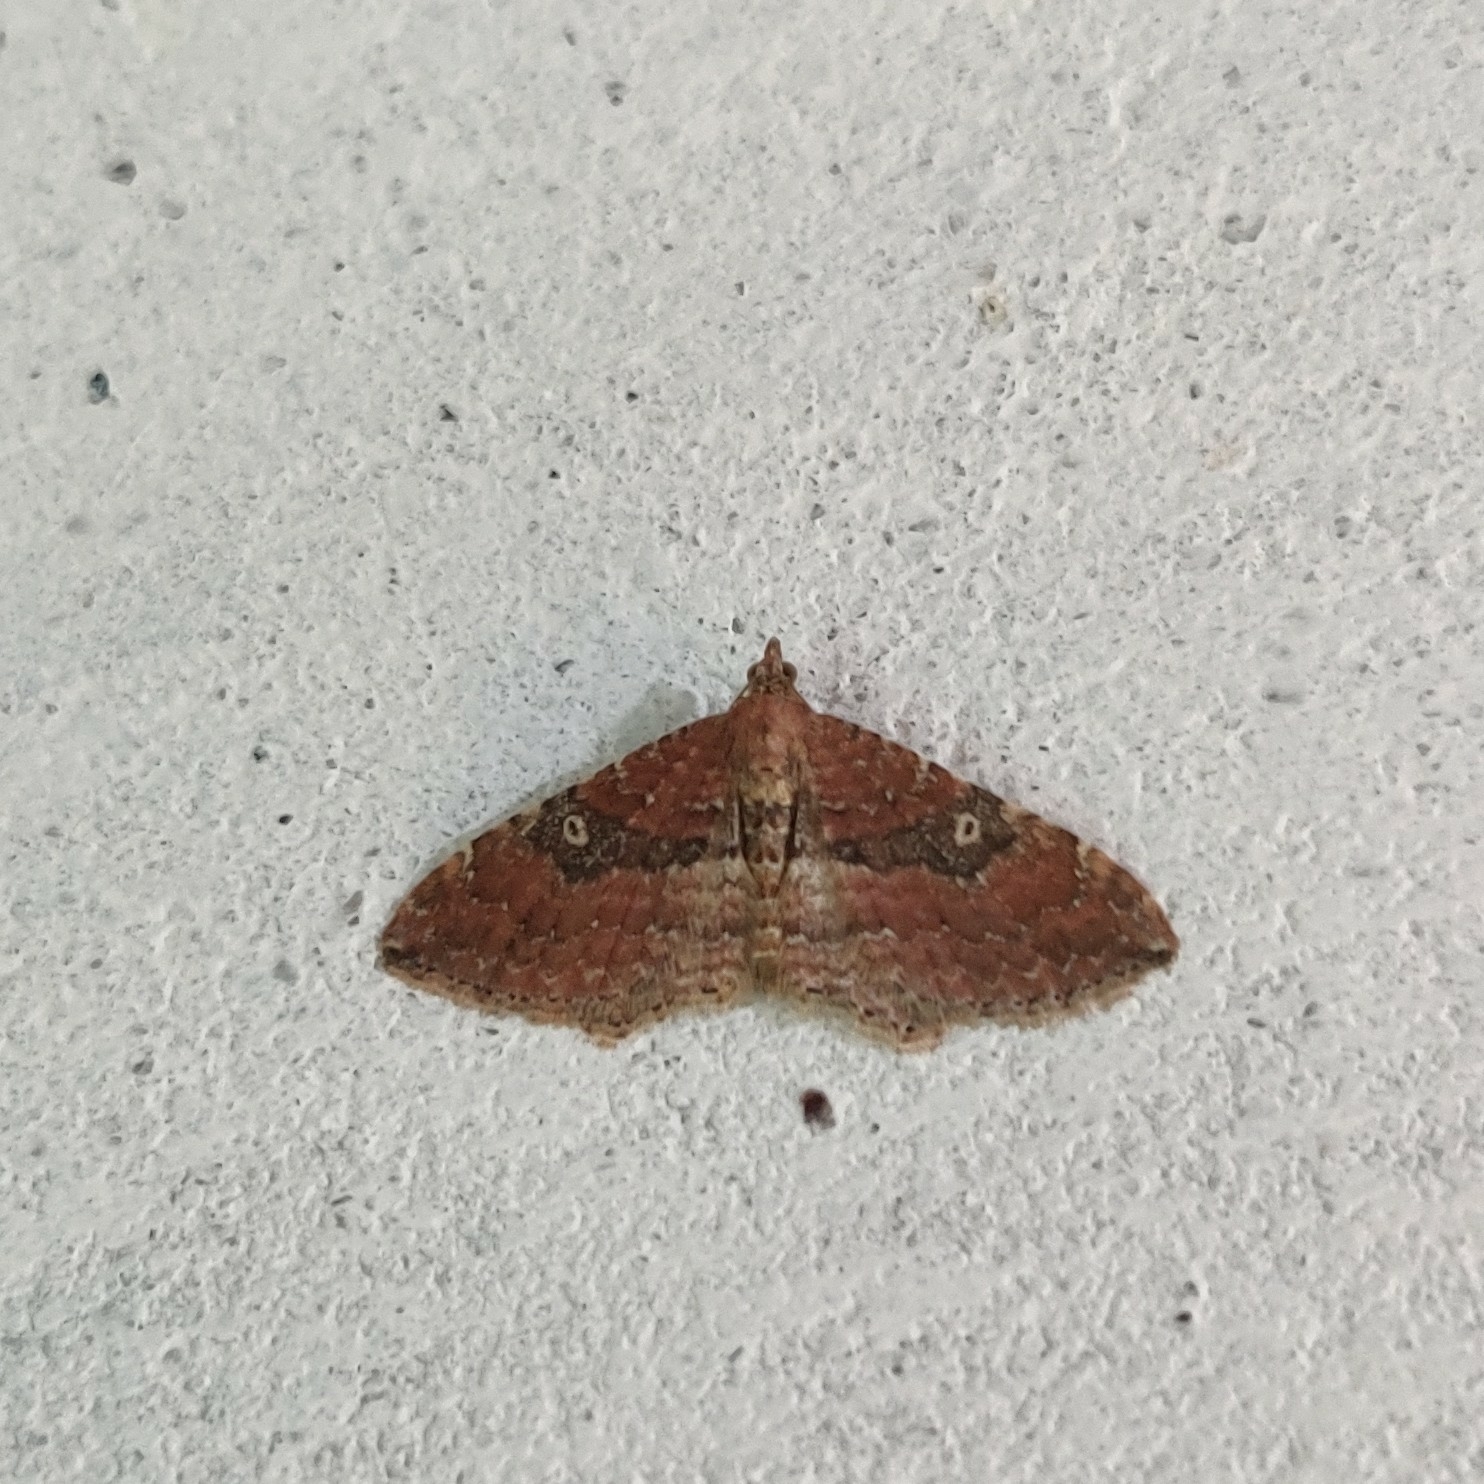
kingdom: Animalia
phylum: Arthropoda
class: Insecta
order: Lepidoptera
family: Geometridae
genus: Orthonama
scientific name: Orthonama obstipata
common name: The gem
